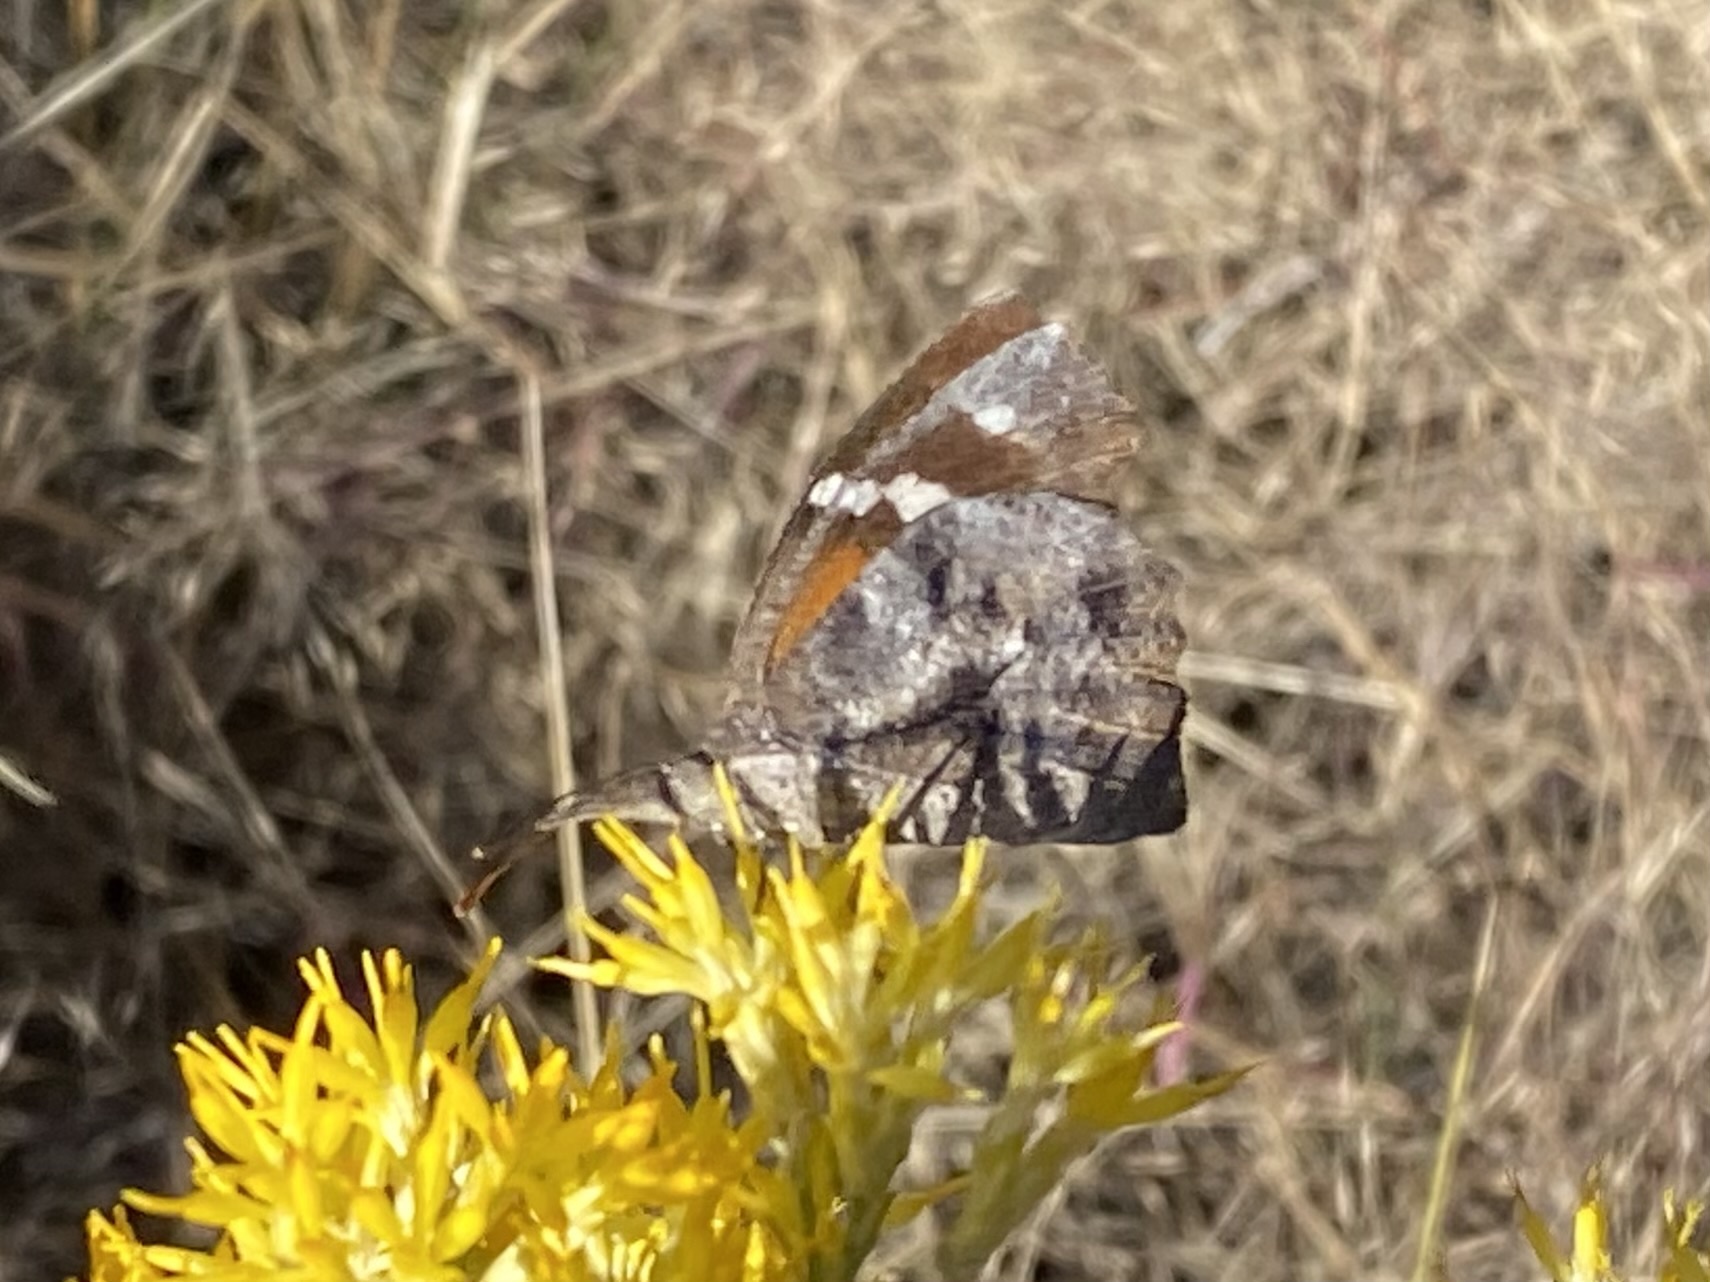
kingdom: Animalia
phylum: Arthropoda
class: Insecta
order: Lepidoptera
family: Nymphalidae
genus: Libytheana
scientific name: Libytheana carinenta
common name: American snout
